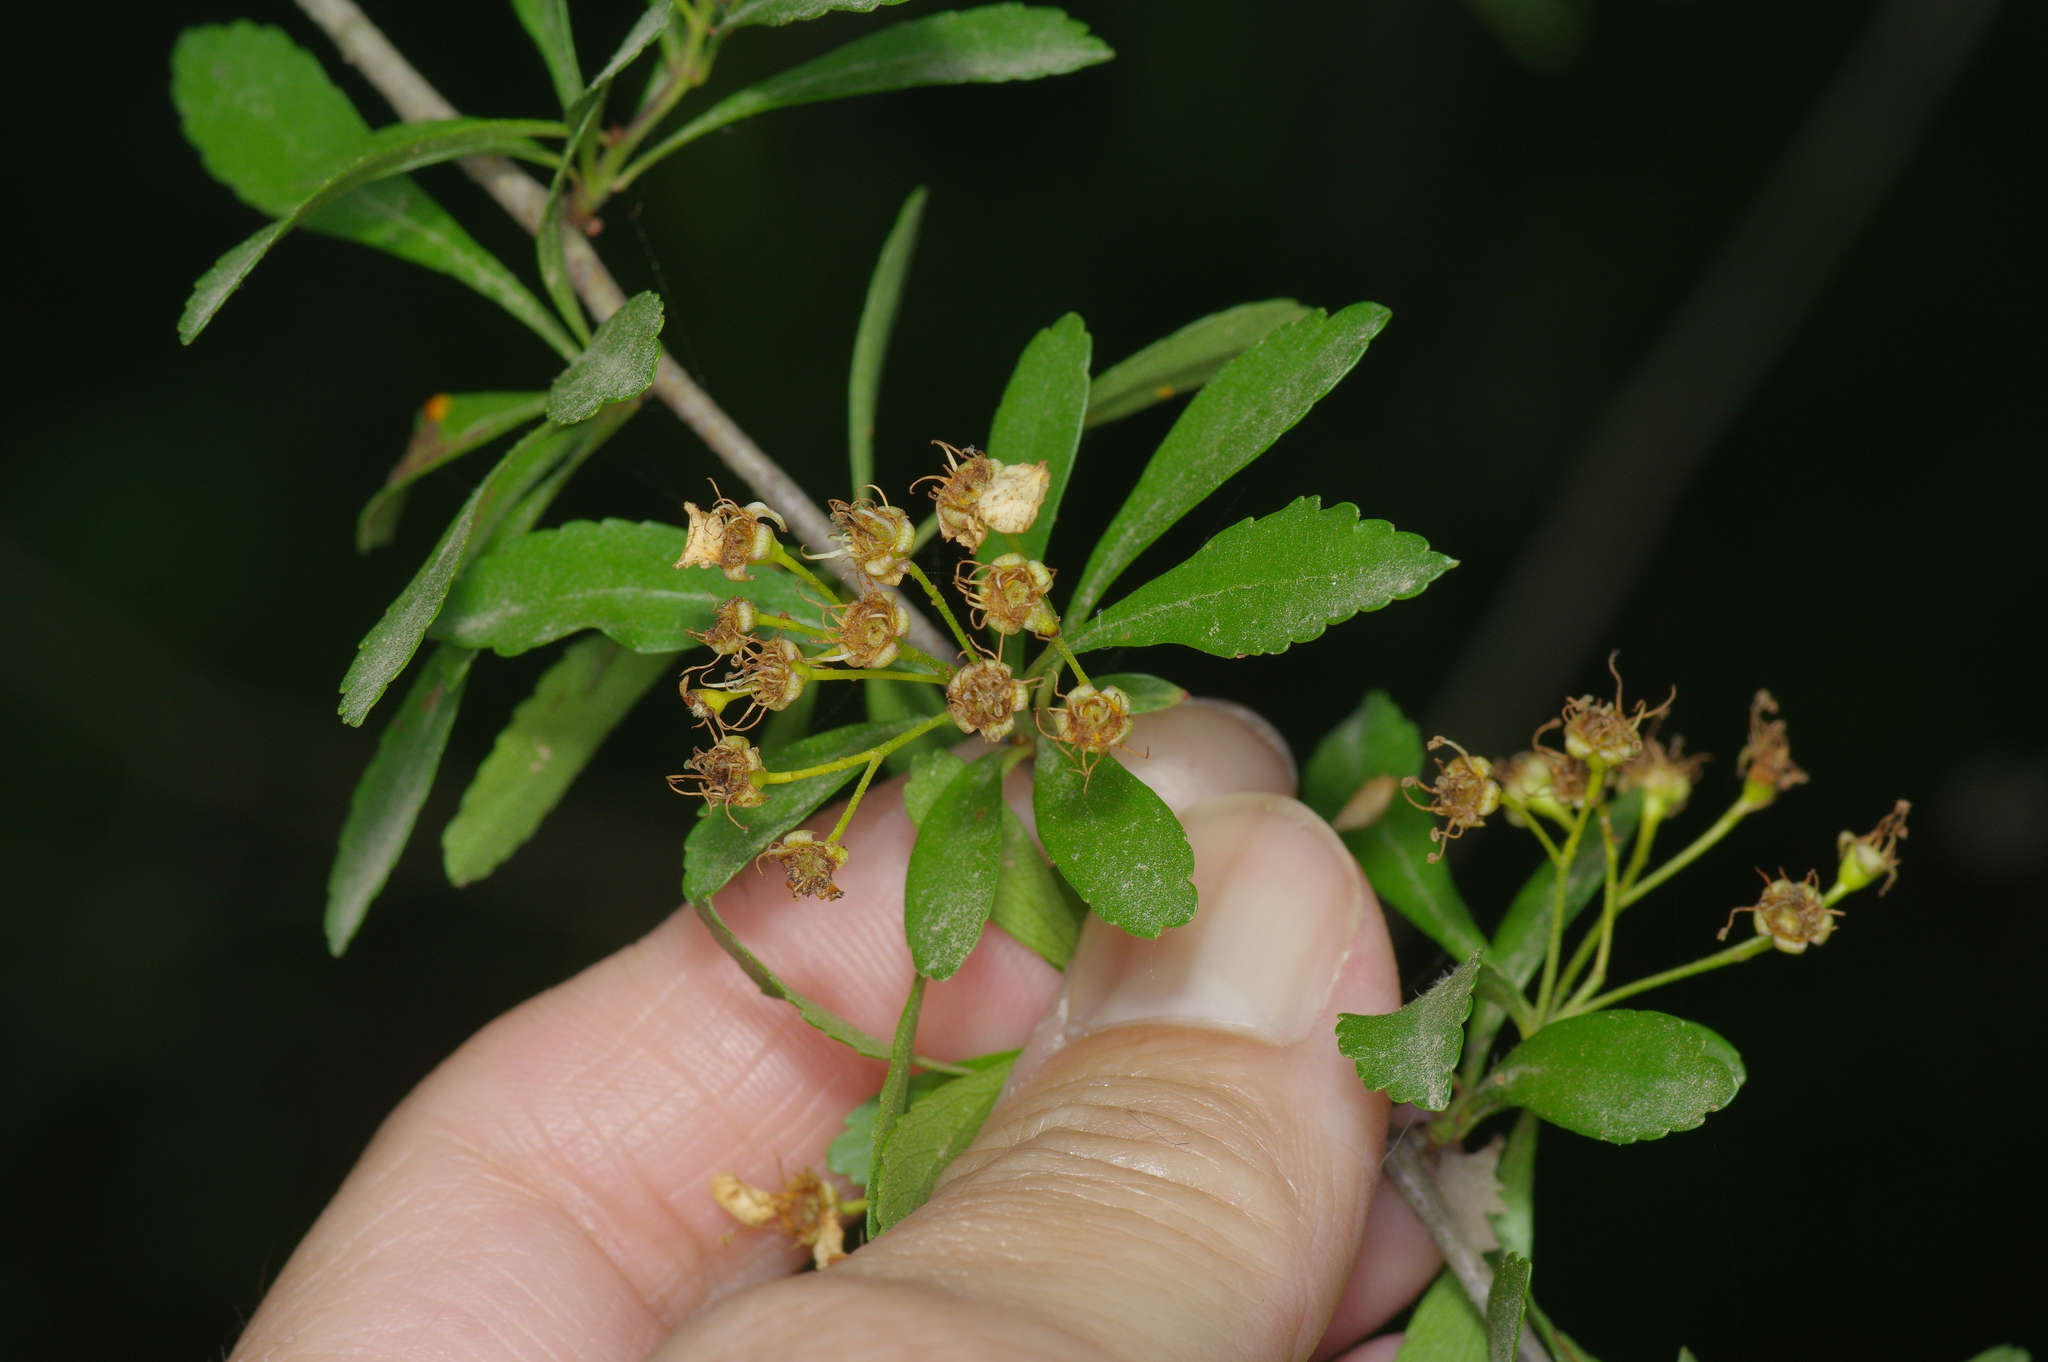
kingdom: Plantae
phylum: Tracheophyta
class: Magnoliopsida
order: Rosales
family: Rosaceae
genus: Crataegus
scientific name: Crataegus spathulata
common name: Littlehip hawthorn
